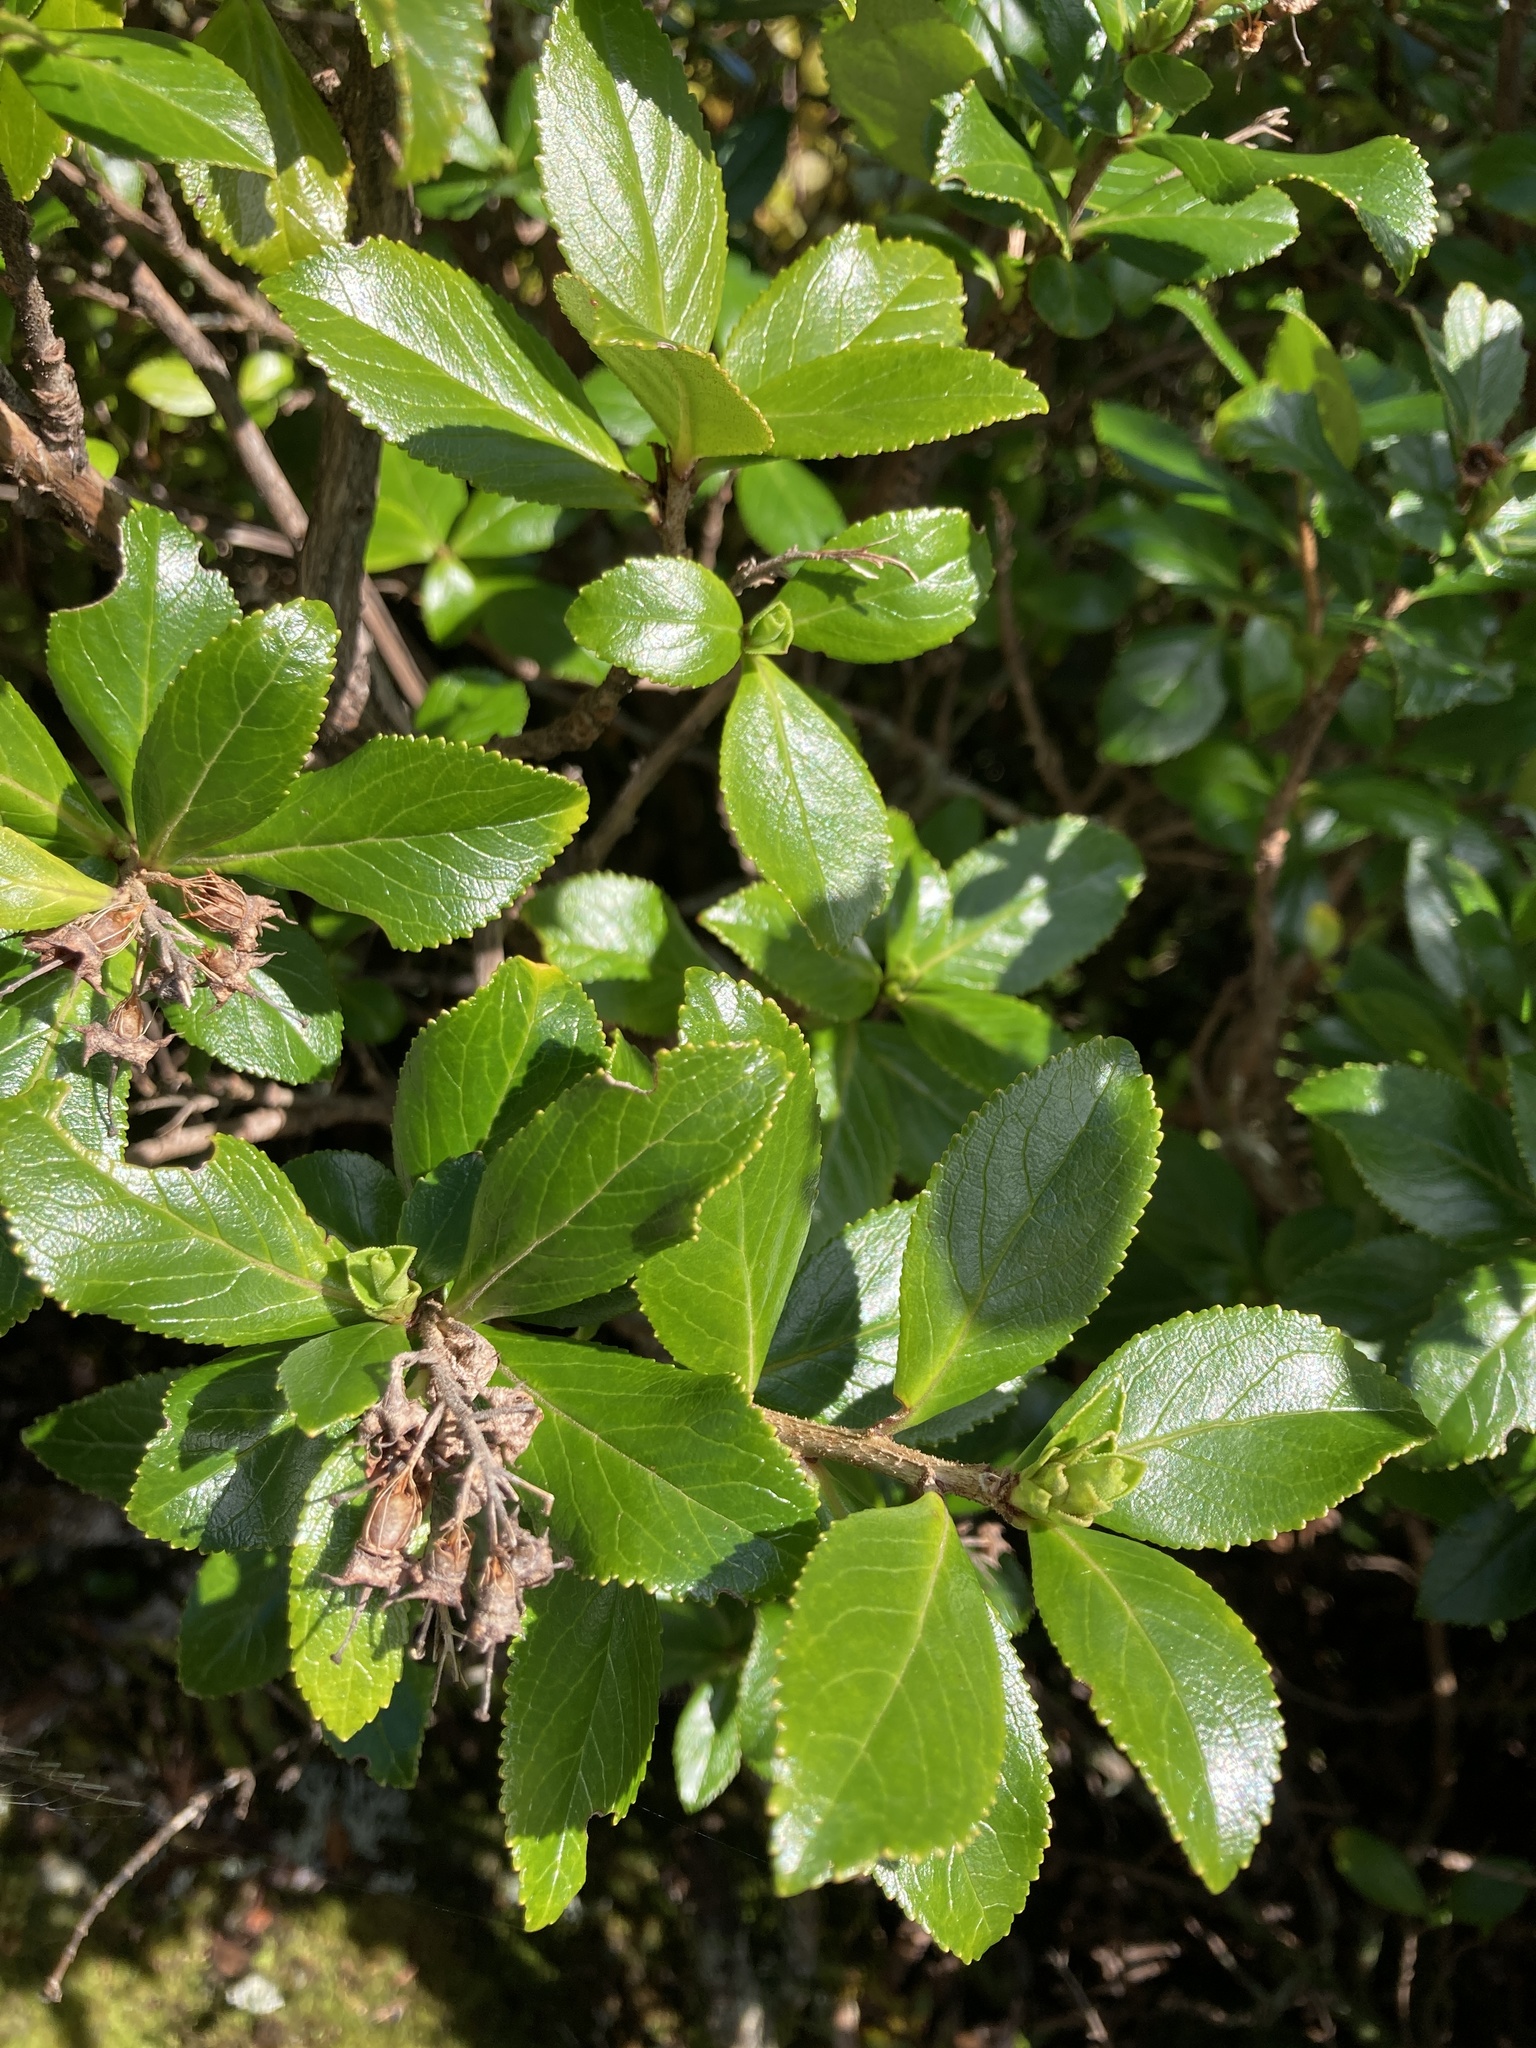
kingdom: Plantae
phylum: Tracheophyta
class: Magnoliopsida
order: Escalloniales
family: Escalloniaceae
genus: Escallonia
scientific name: Escallonia rubra
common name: Redclaws
